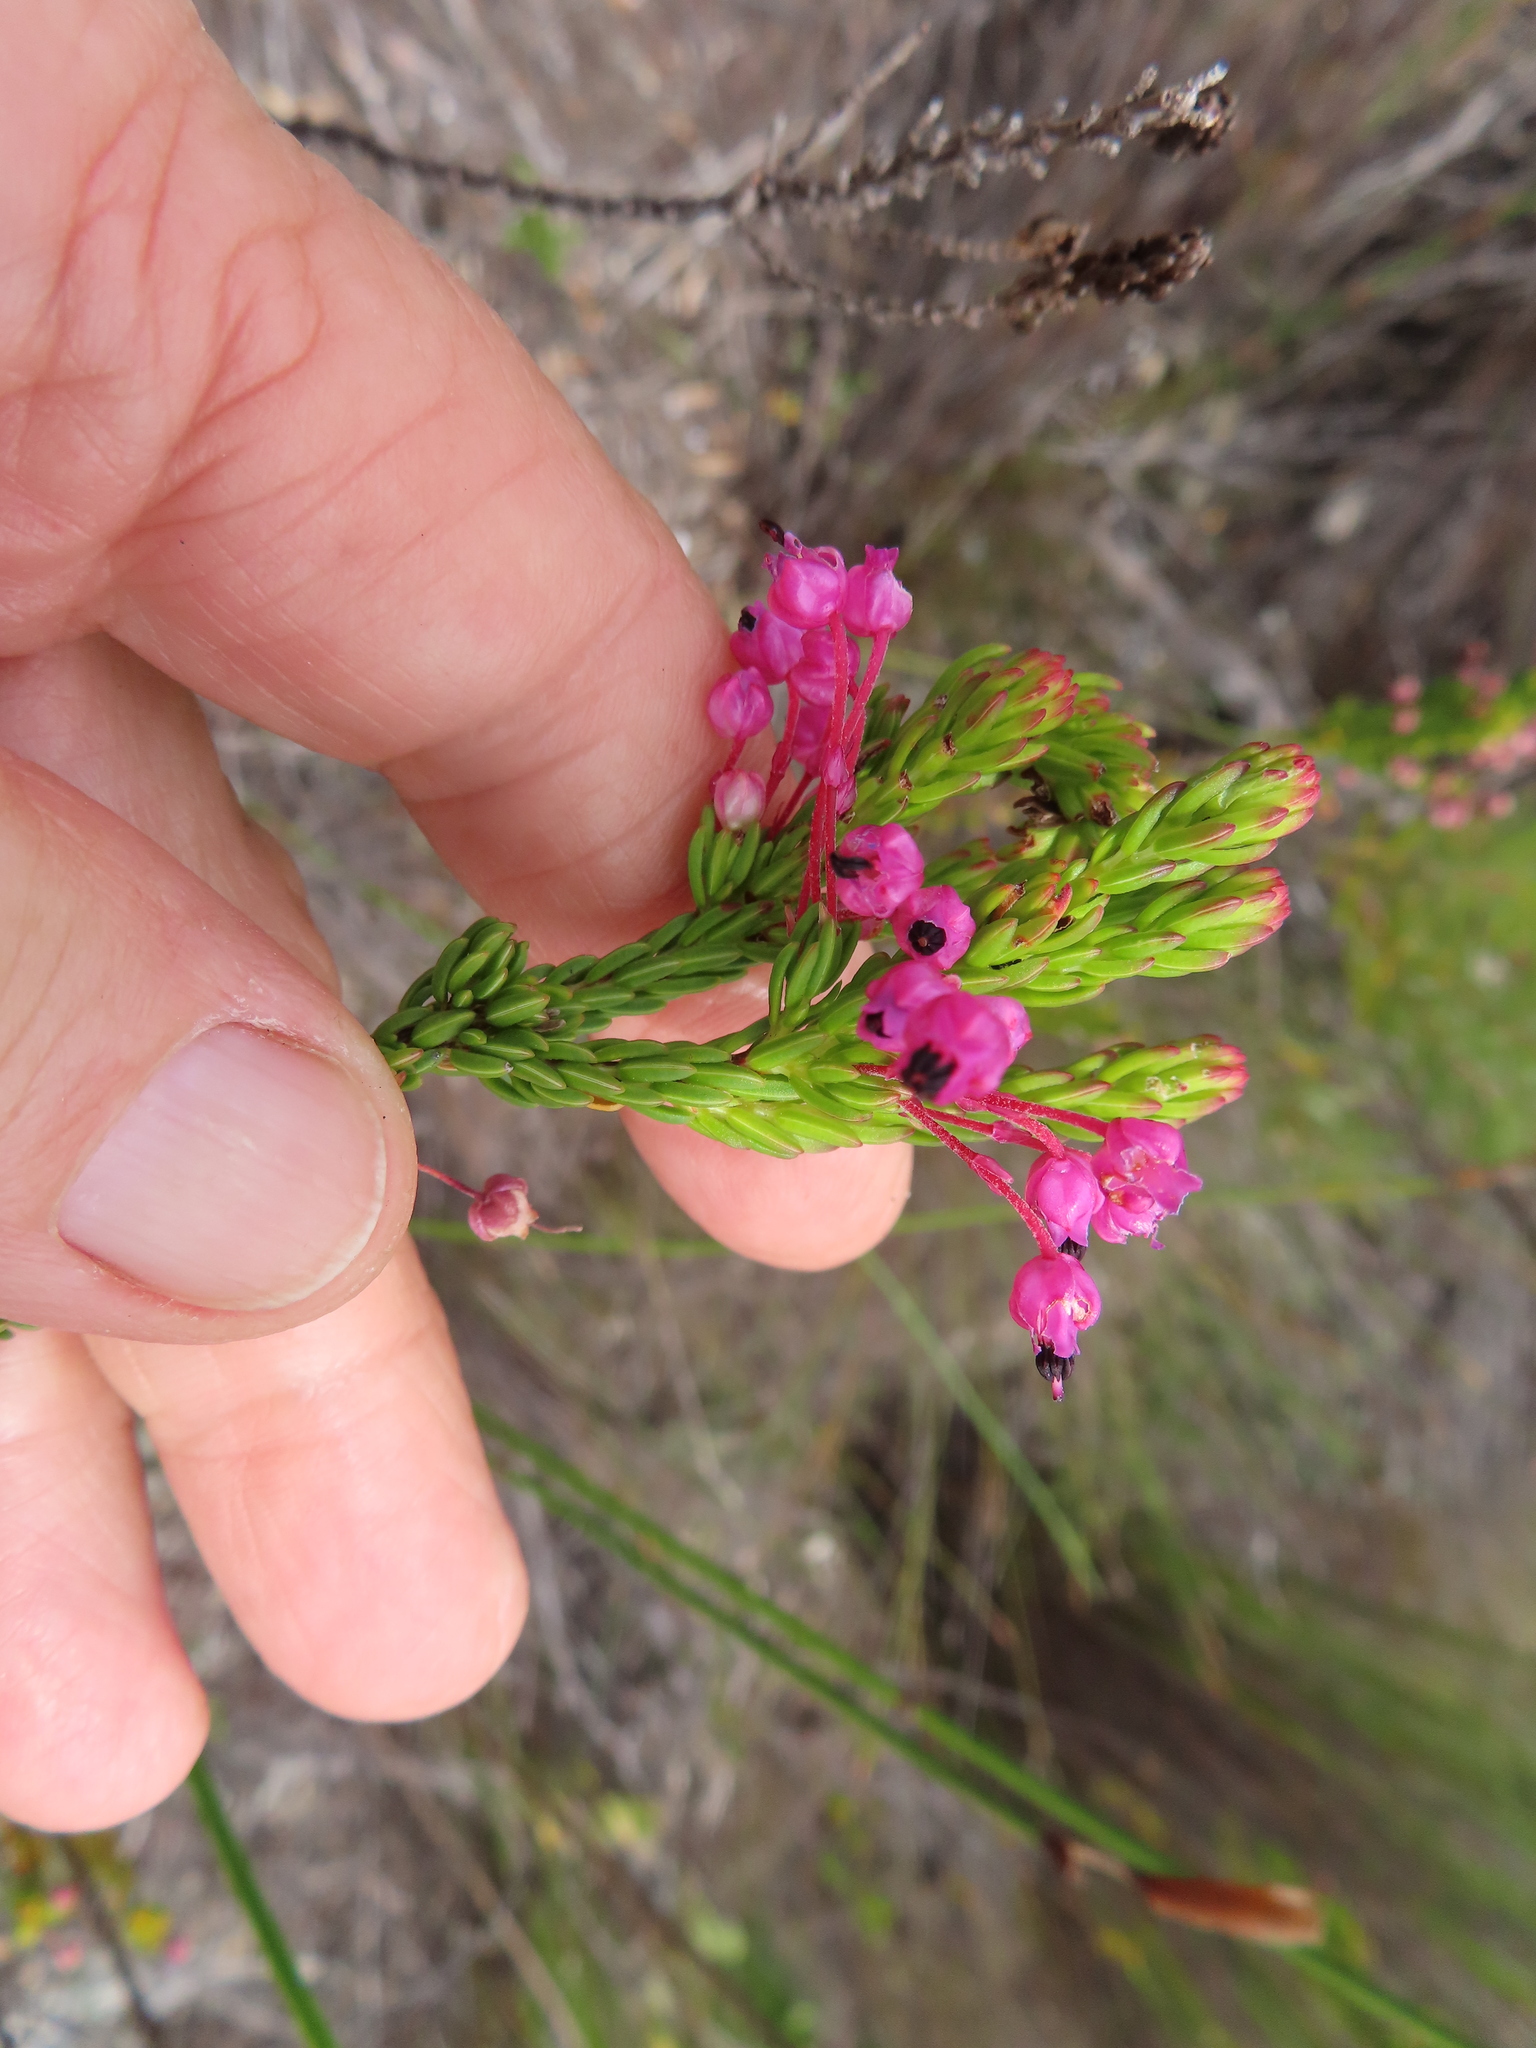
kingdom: Plantae
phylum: Tracheophyta
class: Magnoliopsida
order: Ericales
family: Ericaceae
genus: Erica
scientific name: Erica gracilipes
